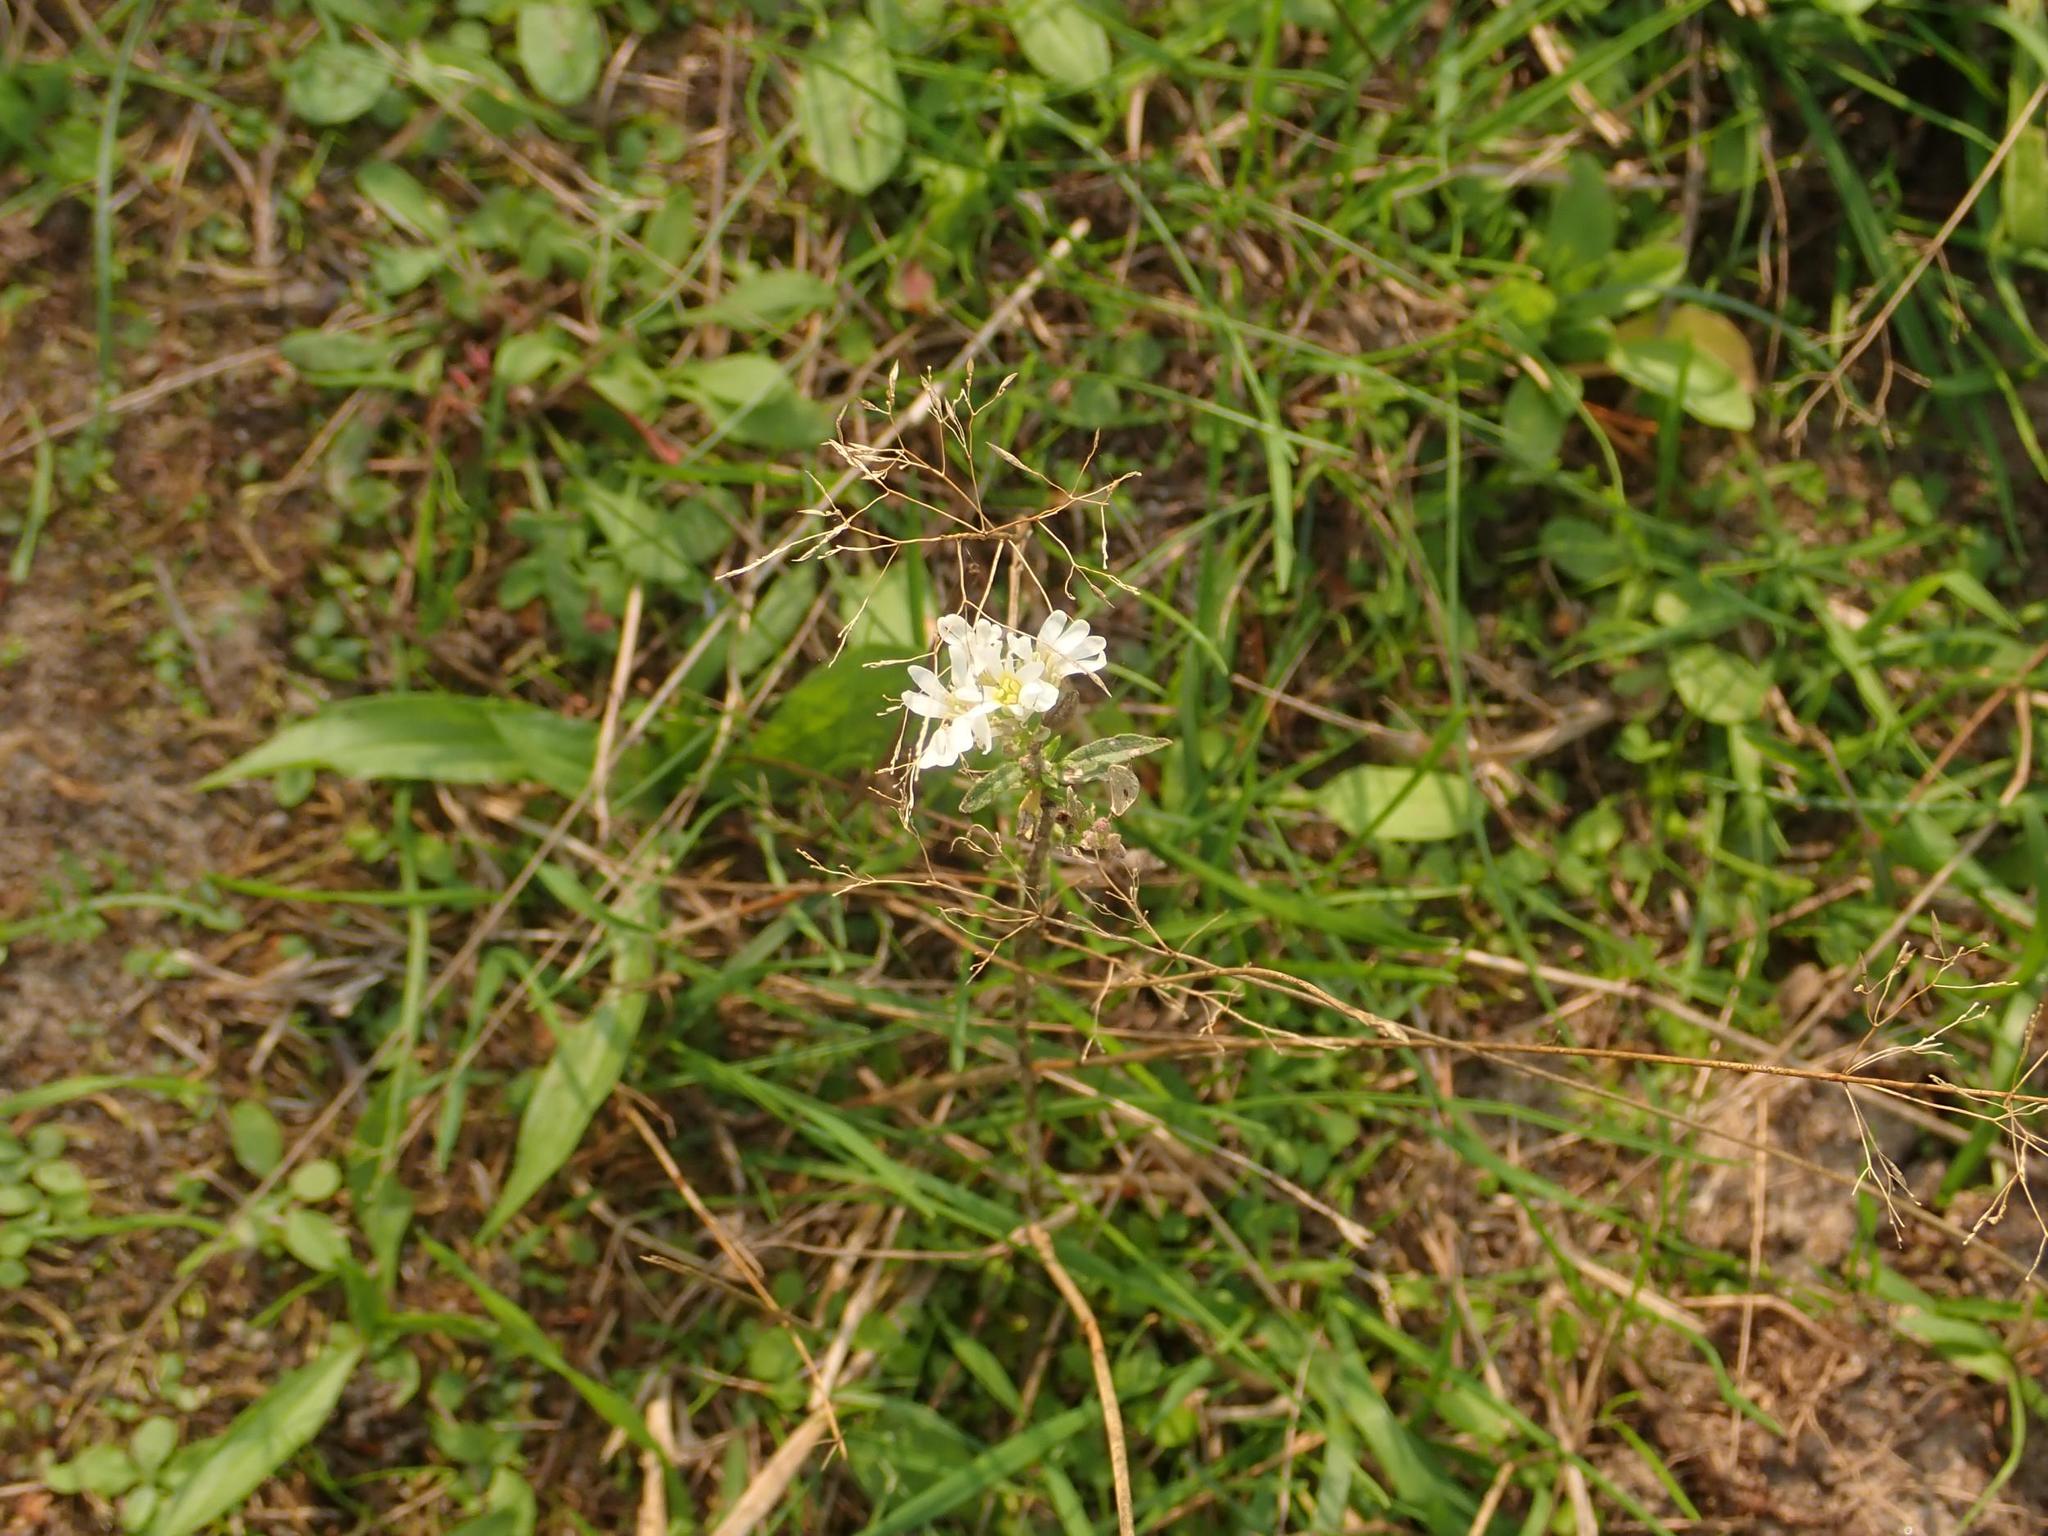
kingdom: Plantae
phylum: Tracheophyta
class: Magnoliopsida
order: Brassicales
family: Brassicaceae
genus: Berteroa
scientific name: Berteroa incana
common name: Hoary alison
